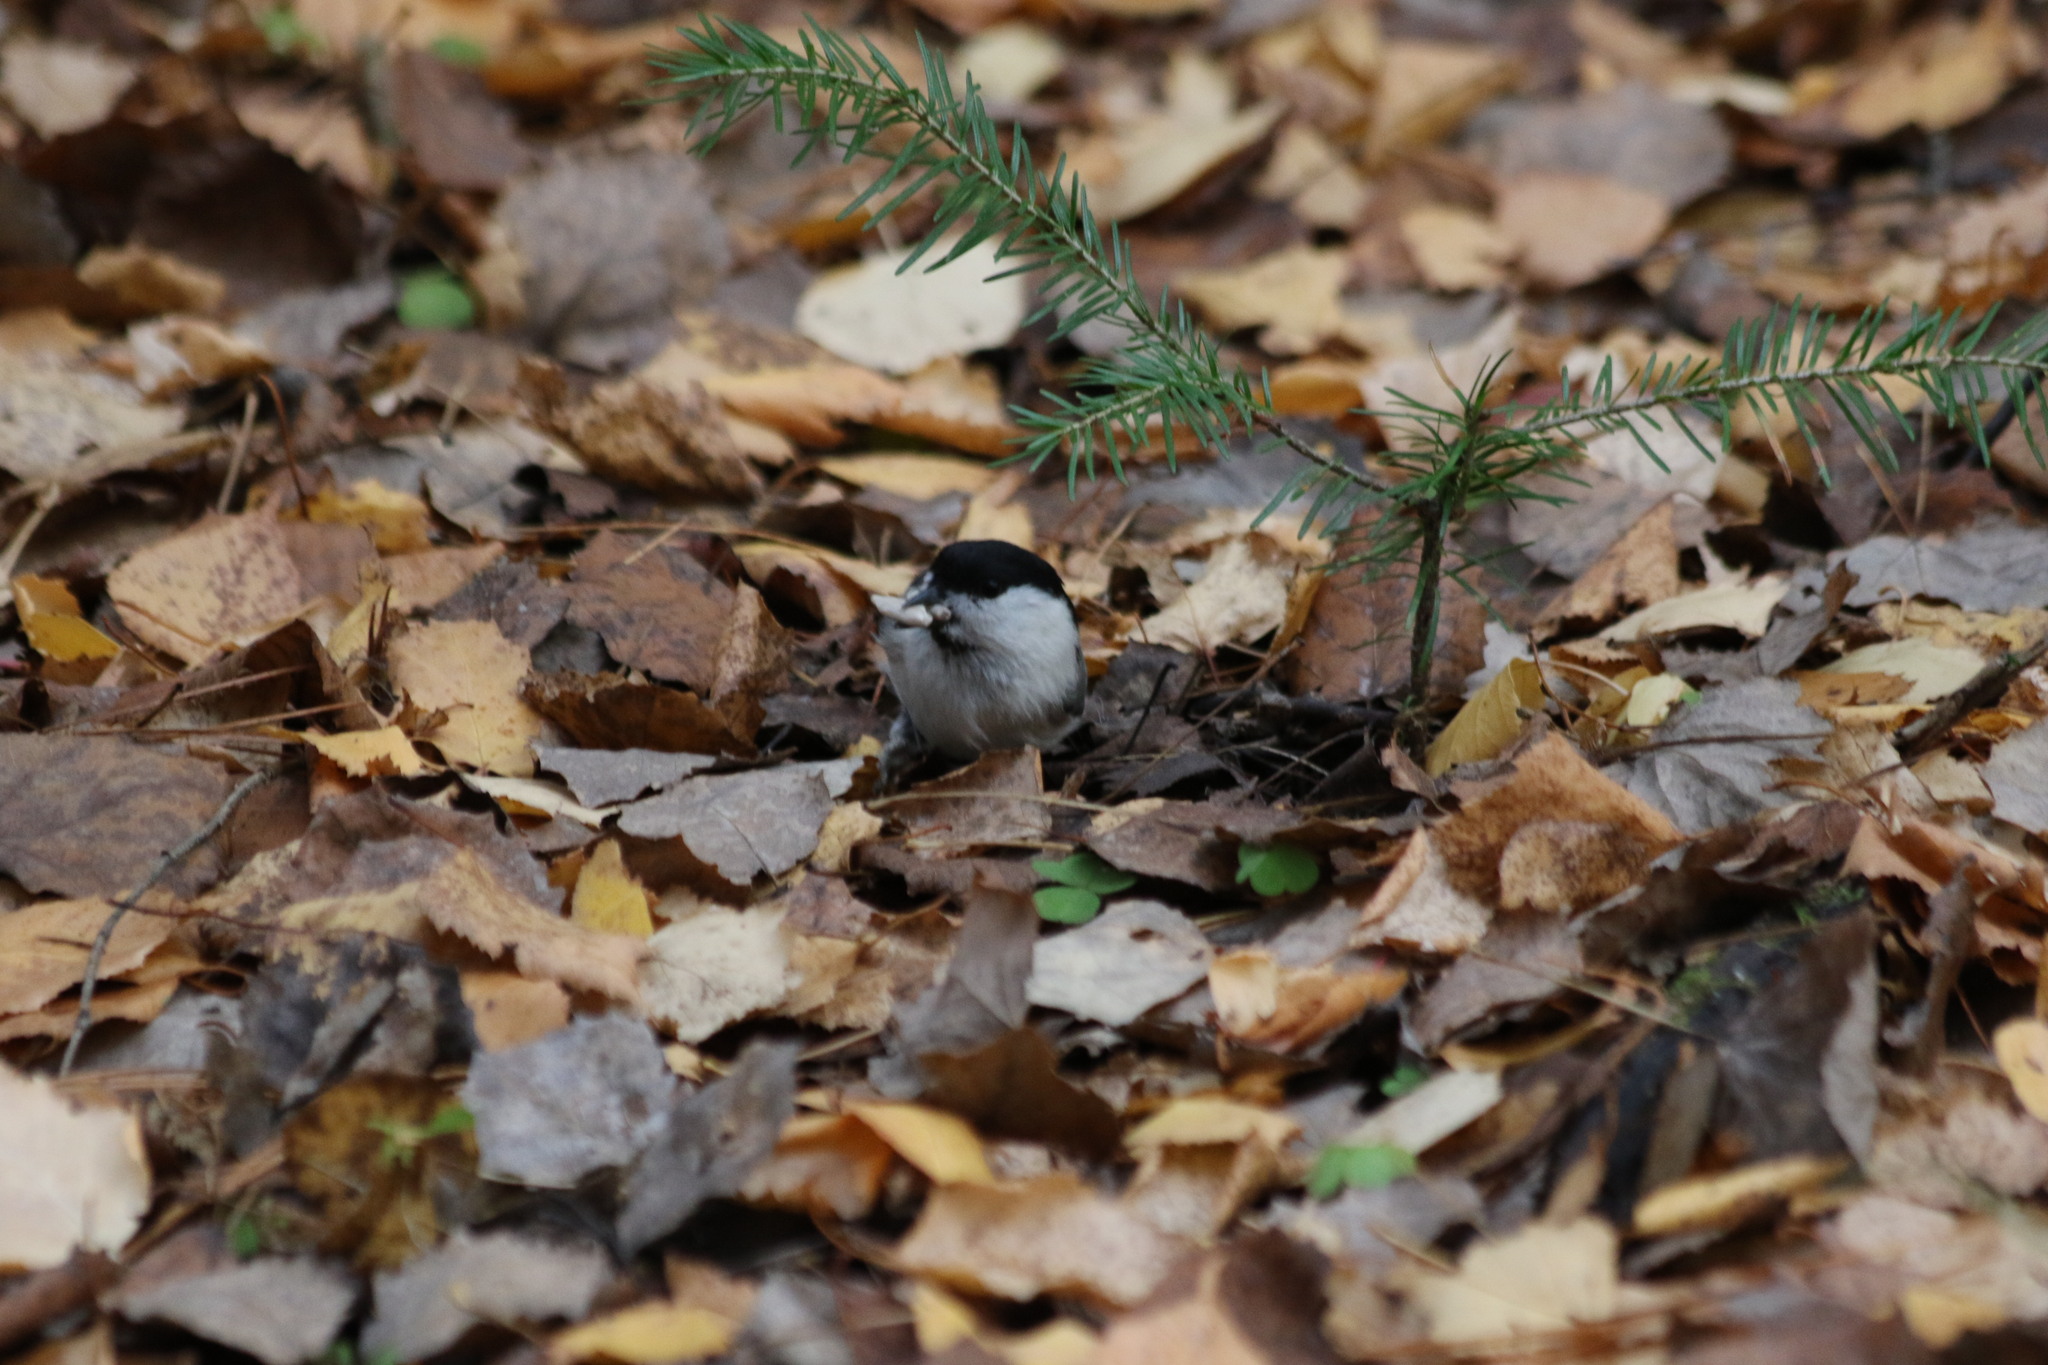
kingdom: Animalia
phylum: Chordata
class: Aves
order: Passeriformes
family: Paridae
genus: Poecile
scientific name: Poecile montanus
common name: Willow tit
